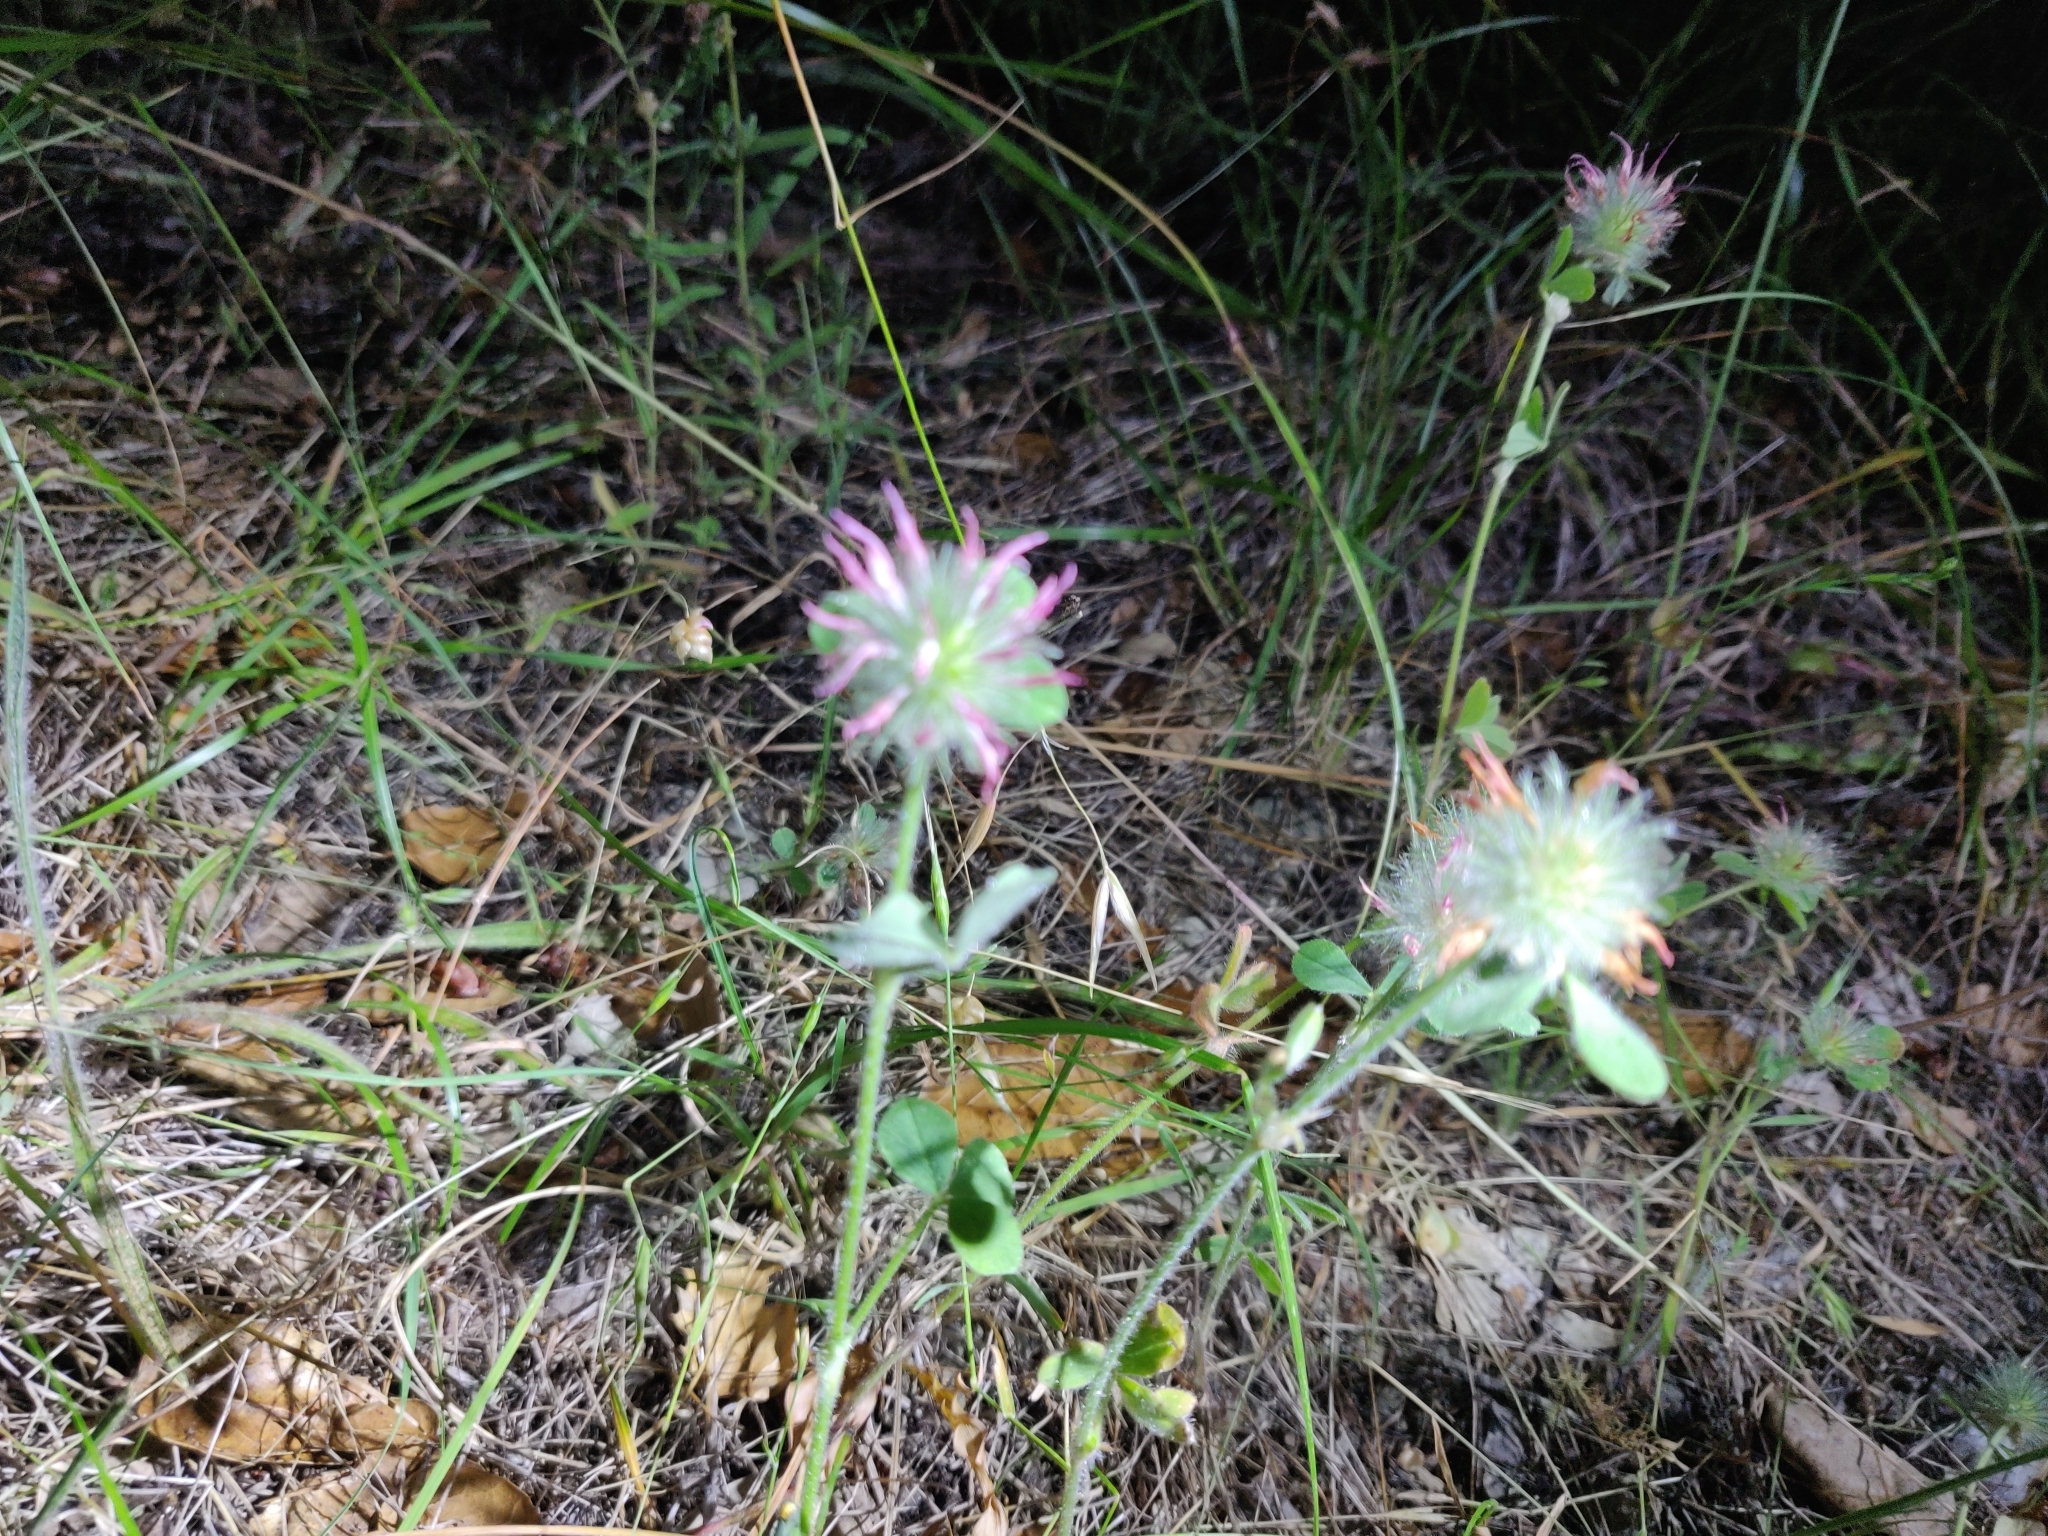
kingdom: Plantae
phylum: Tracheophyta
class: Magnoliopsida
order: Fabales
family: Fabaceae
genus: Trifolium
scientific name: Trifolium hirtum
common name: Rose clover
